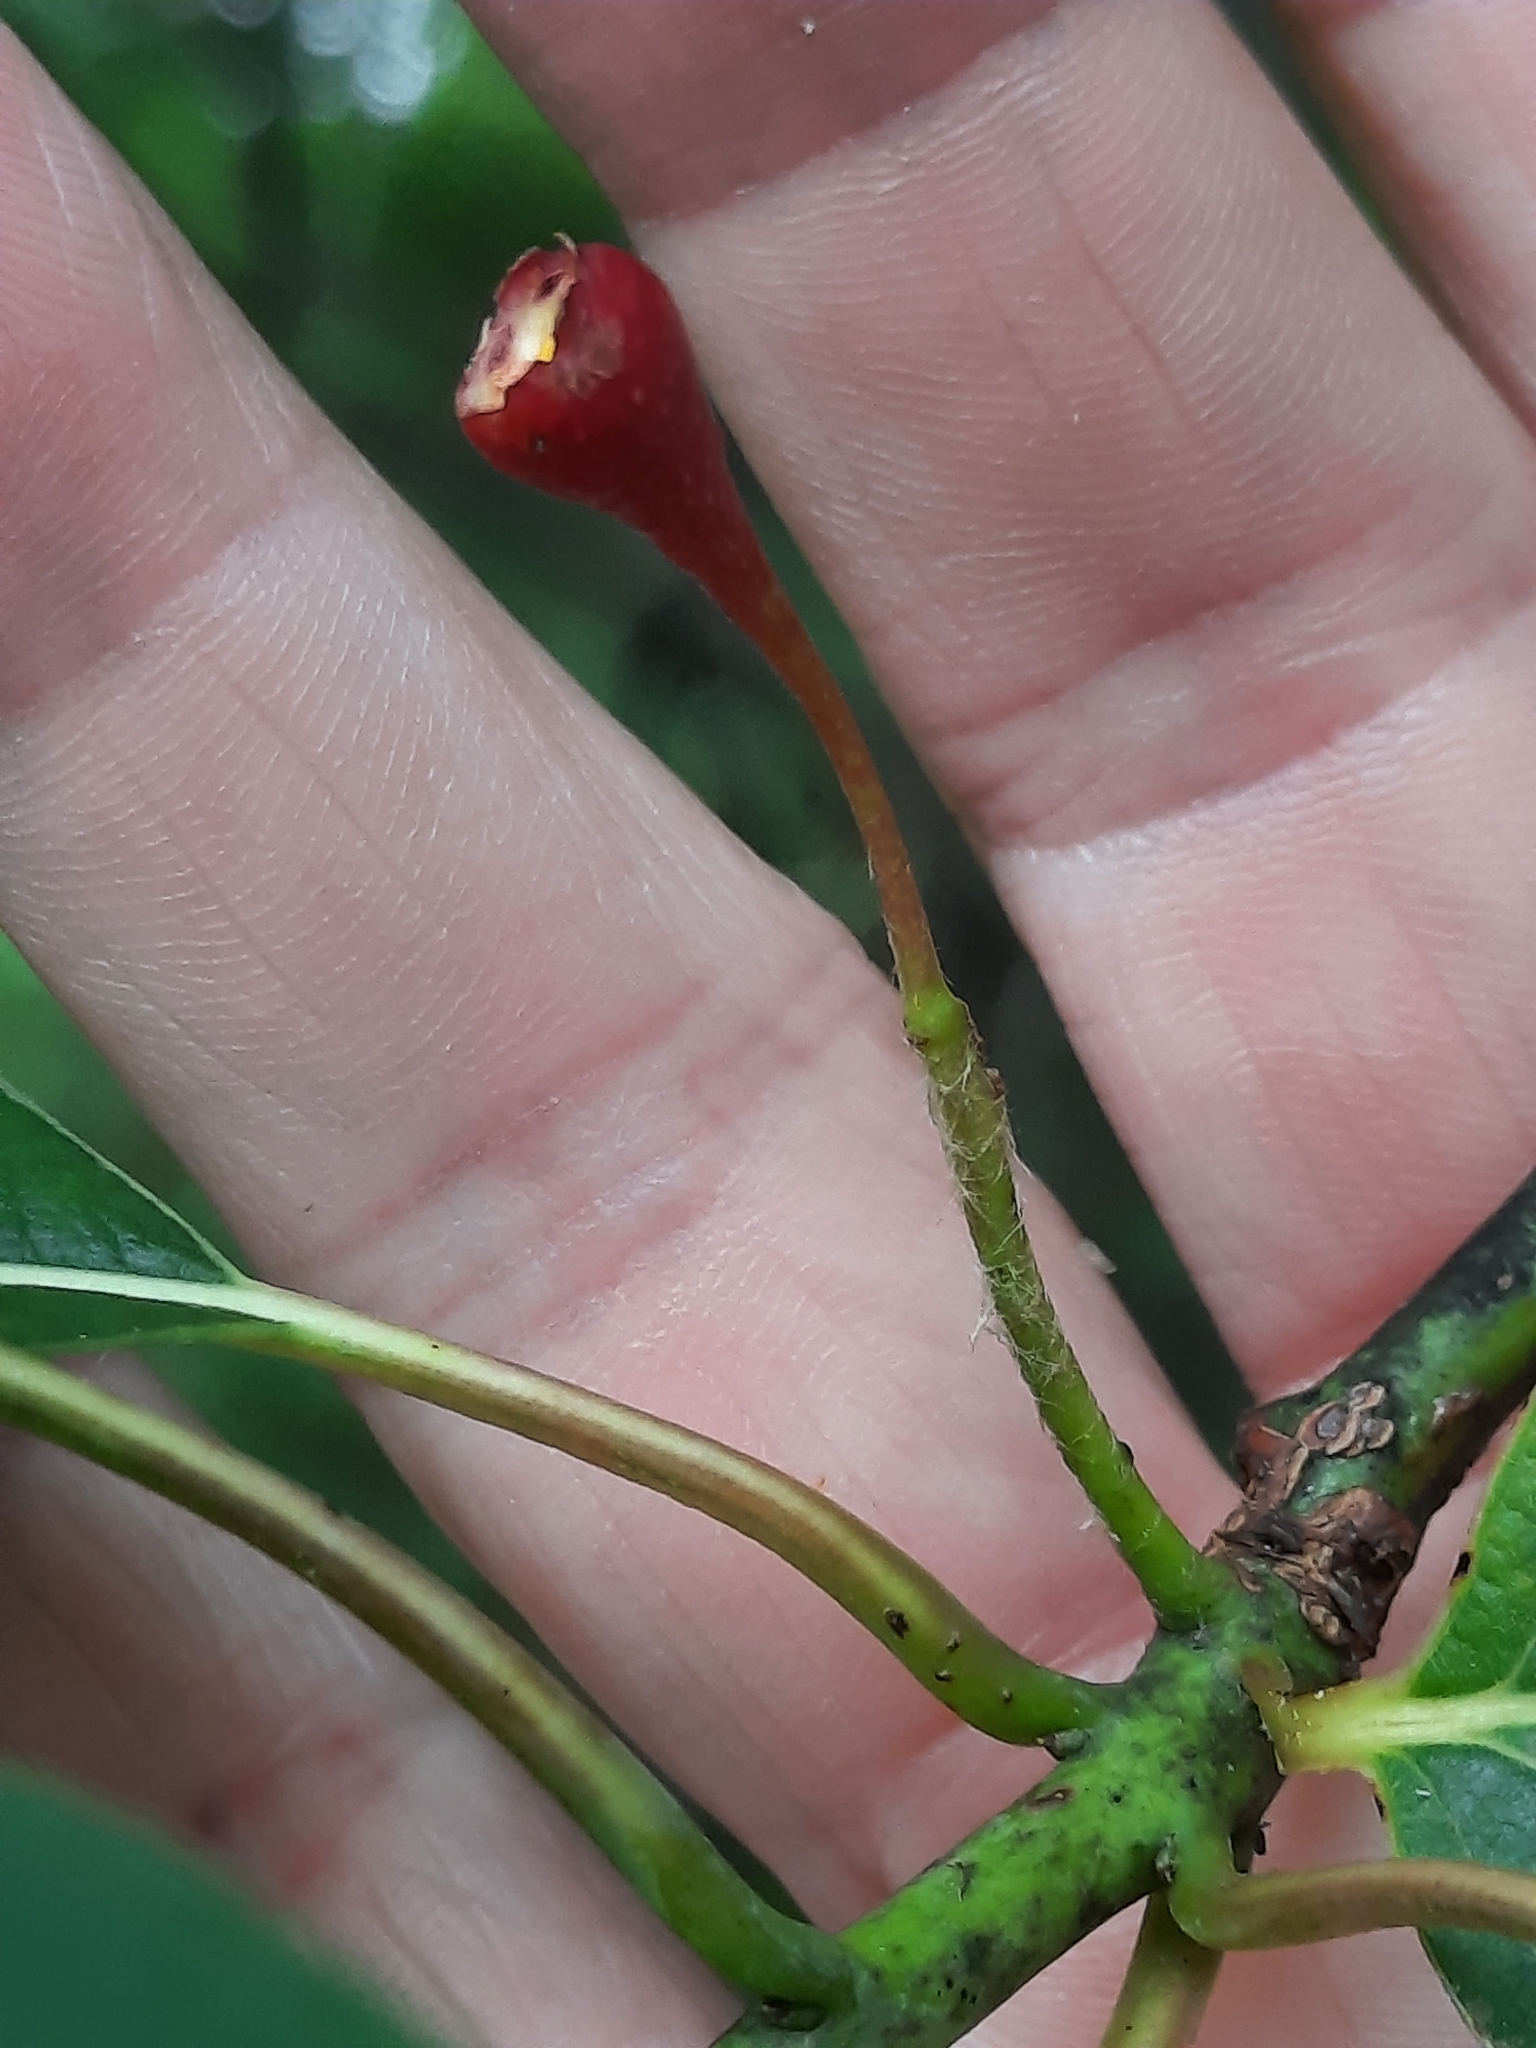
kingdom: Plantae
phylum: Tracheophyta
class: Magnoliopsida
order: Laurales
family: Lauraceae
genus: Sassafras
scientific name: Sassafras albidum
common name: Sassafras
